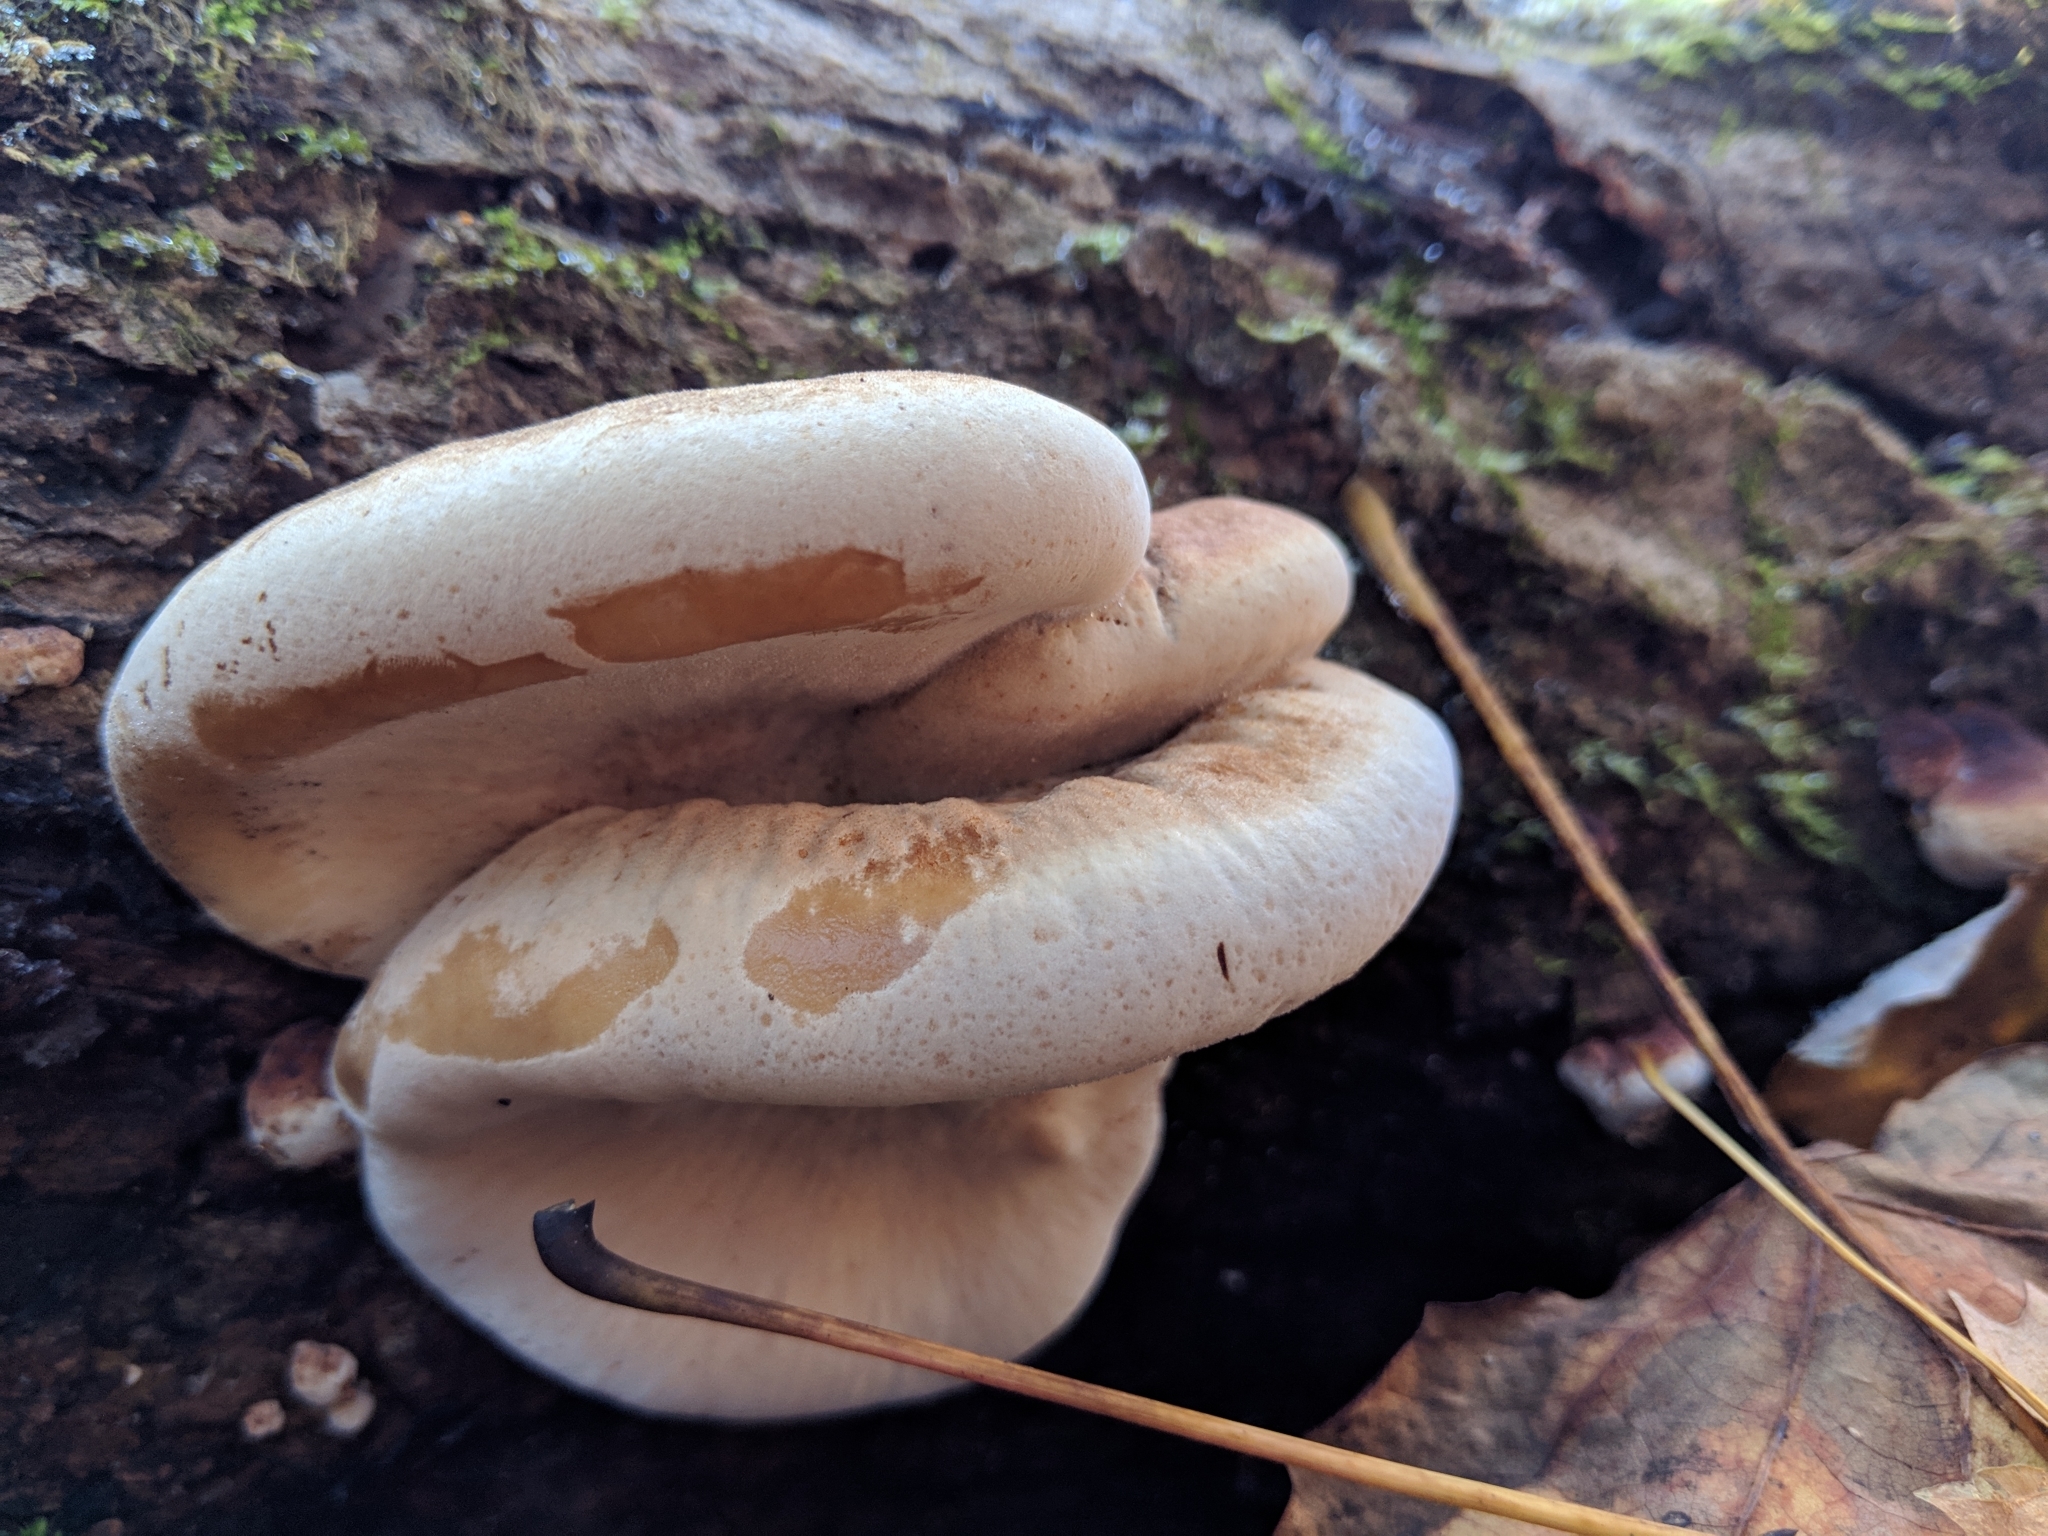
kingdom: Fungi
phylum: Basidiomycota
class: Agaricomycetes
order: Polyporales
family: Ischnodermataceae
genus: Ischnoderma
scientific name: Ischnoderma resinosum
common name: Resinous polypore
